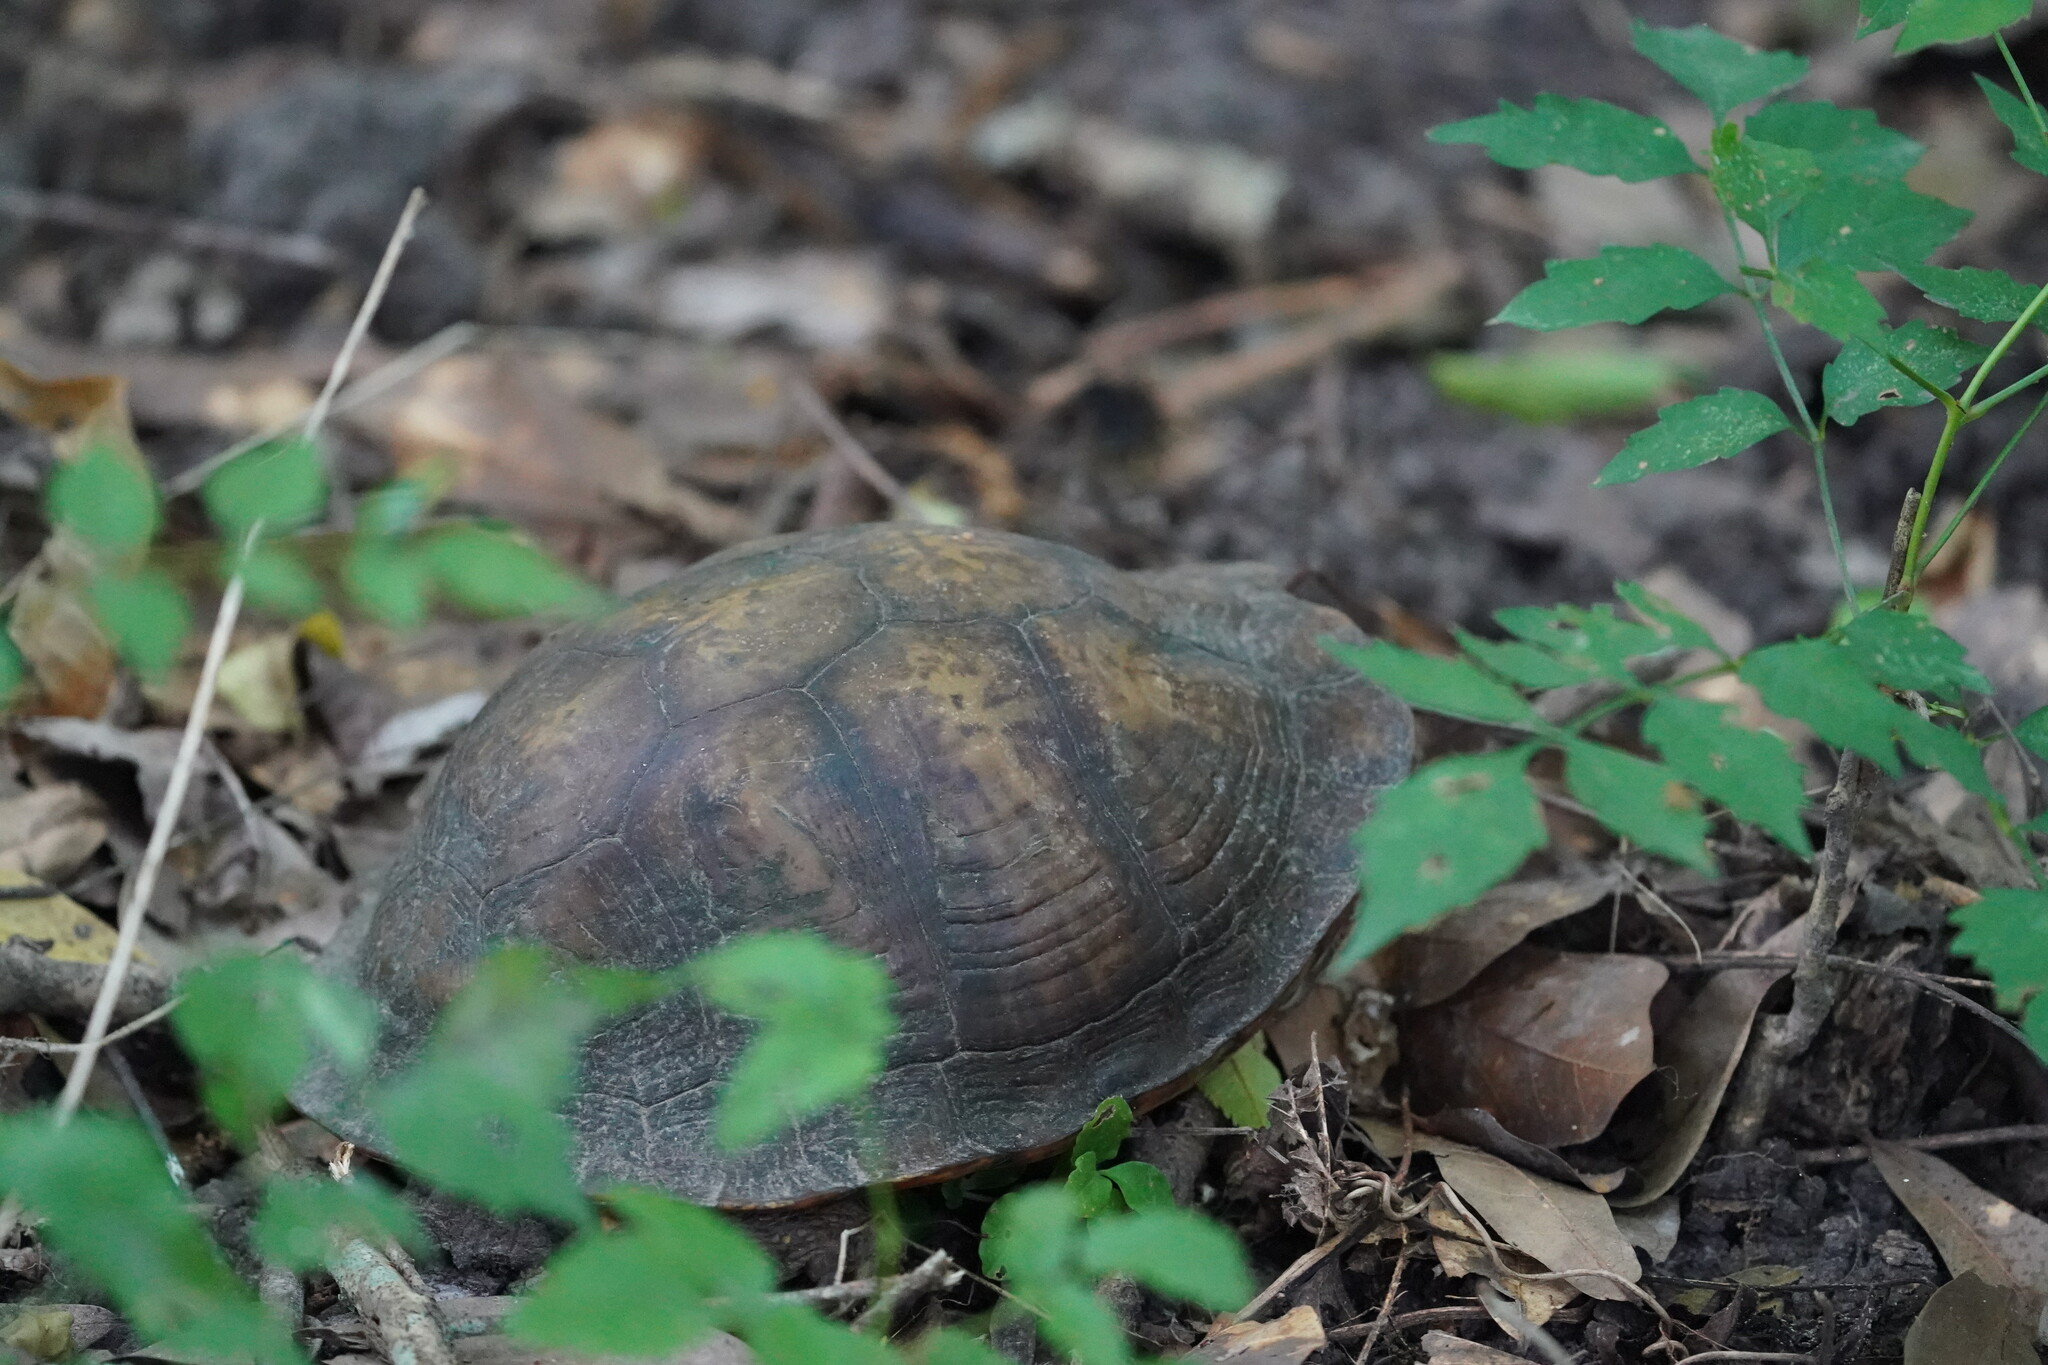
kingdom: Animalia
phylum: Chordata
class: Testudines
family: Emydidae
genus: Terrapene
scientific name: Terrapene carolina
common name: Common box turtle
